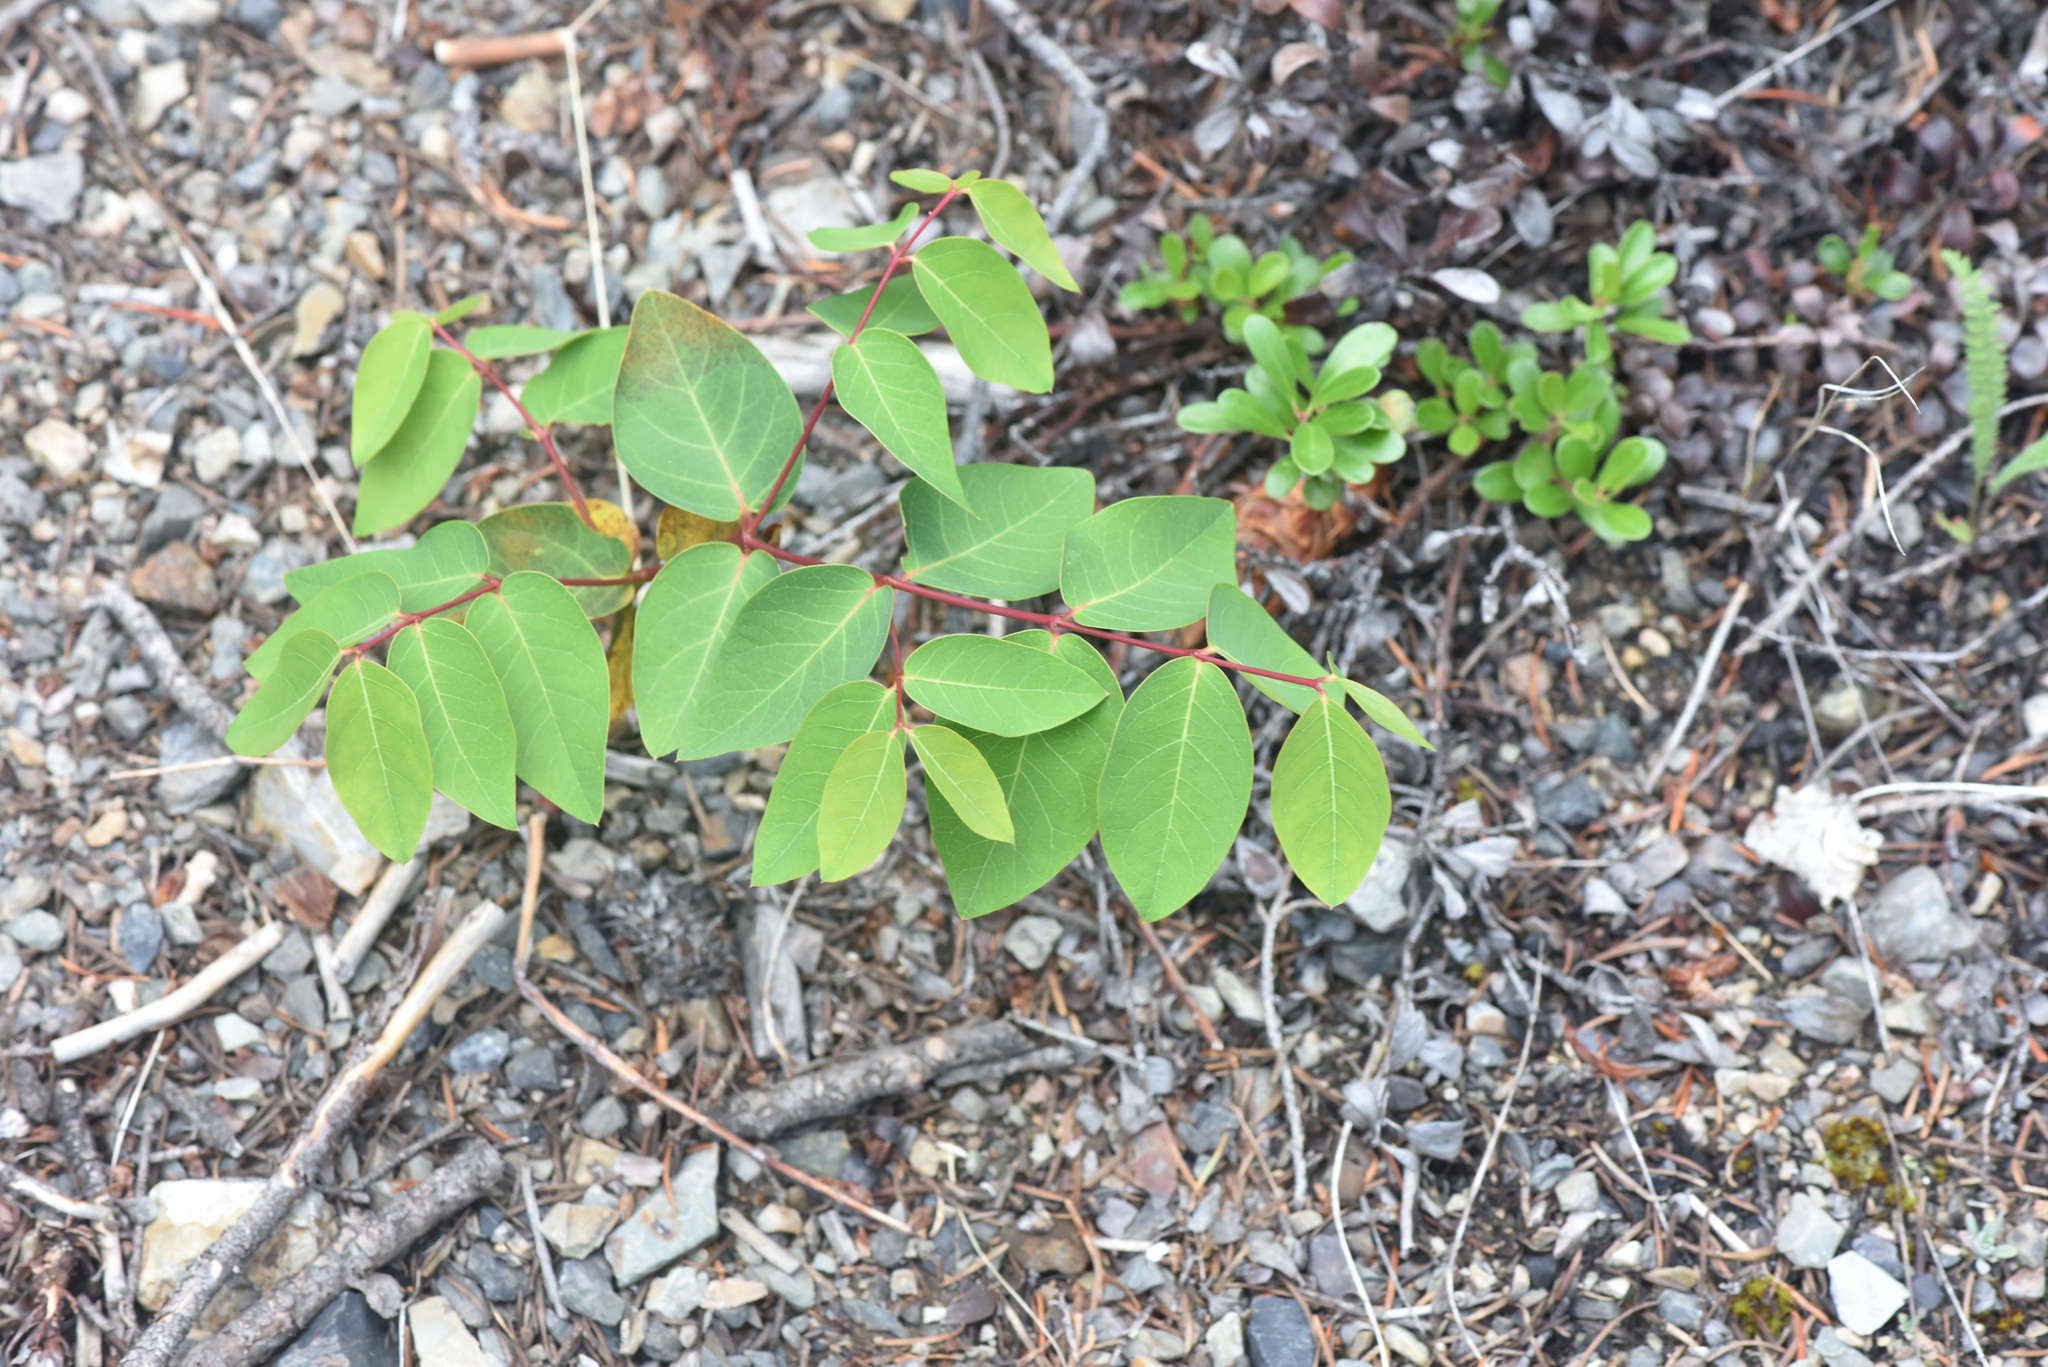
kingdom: Plantae
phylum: Tracheophyta
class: Magnoliopsida
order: Gentianales
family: Apocynaceae
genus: Apocynum
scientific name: Apocynum androsaemifolium
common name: Spreading dogbane
